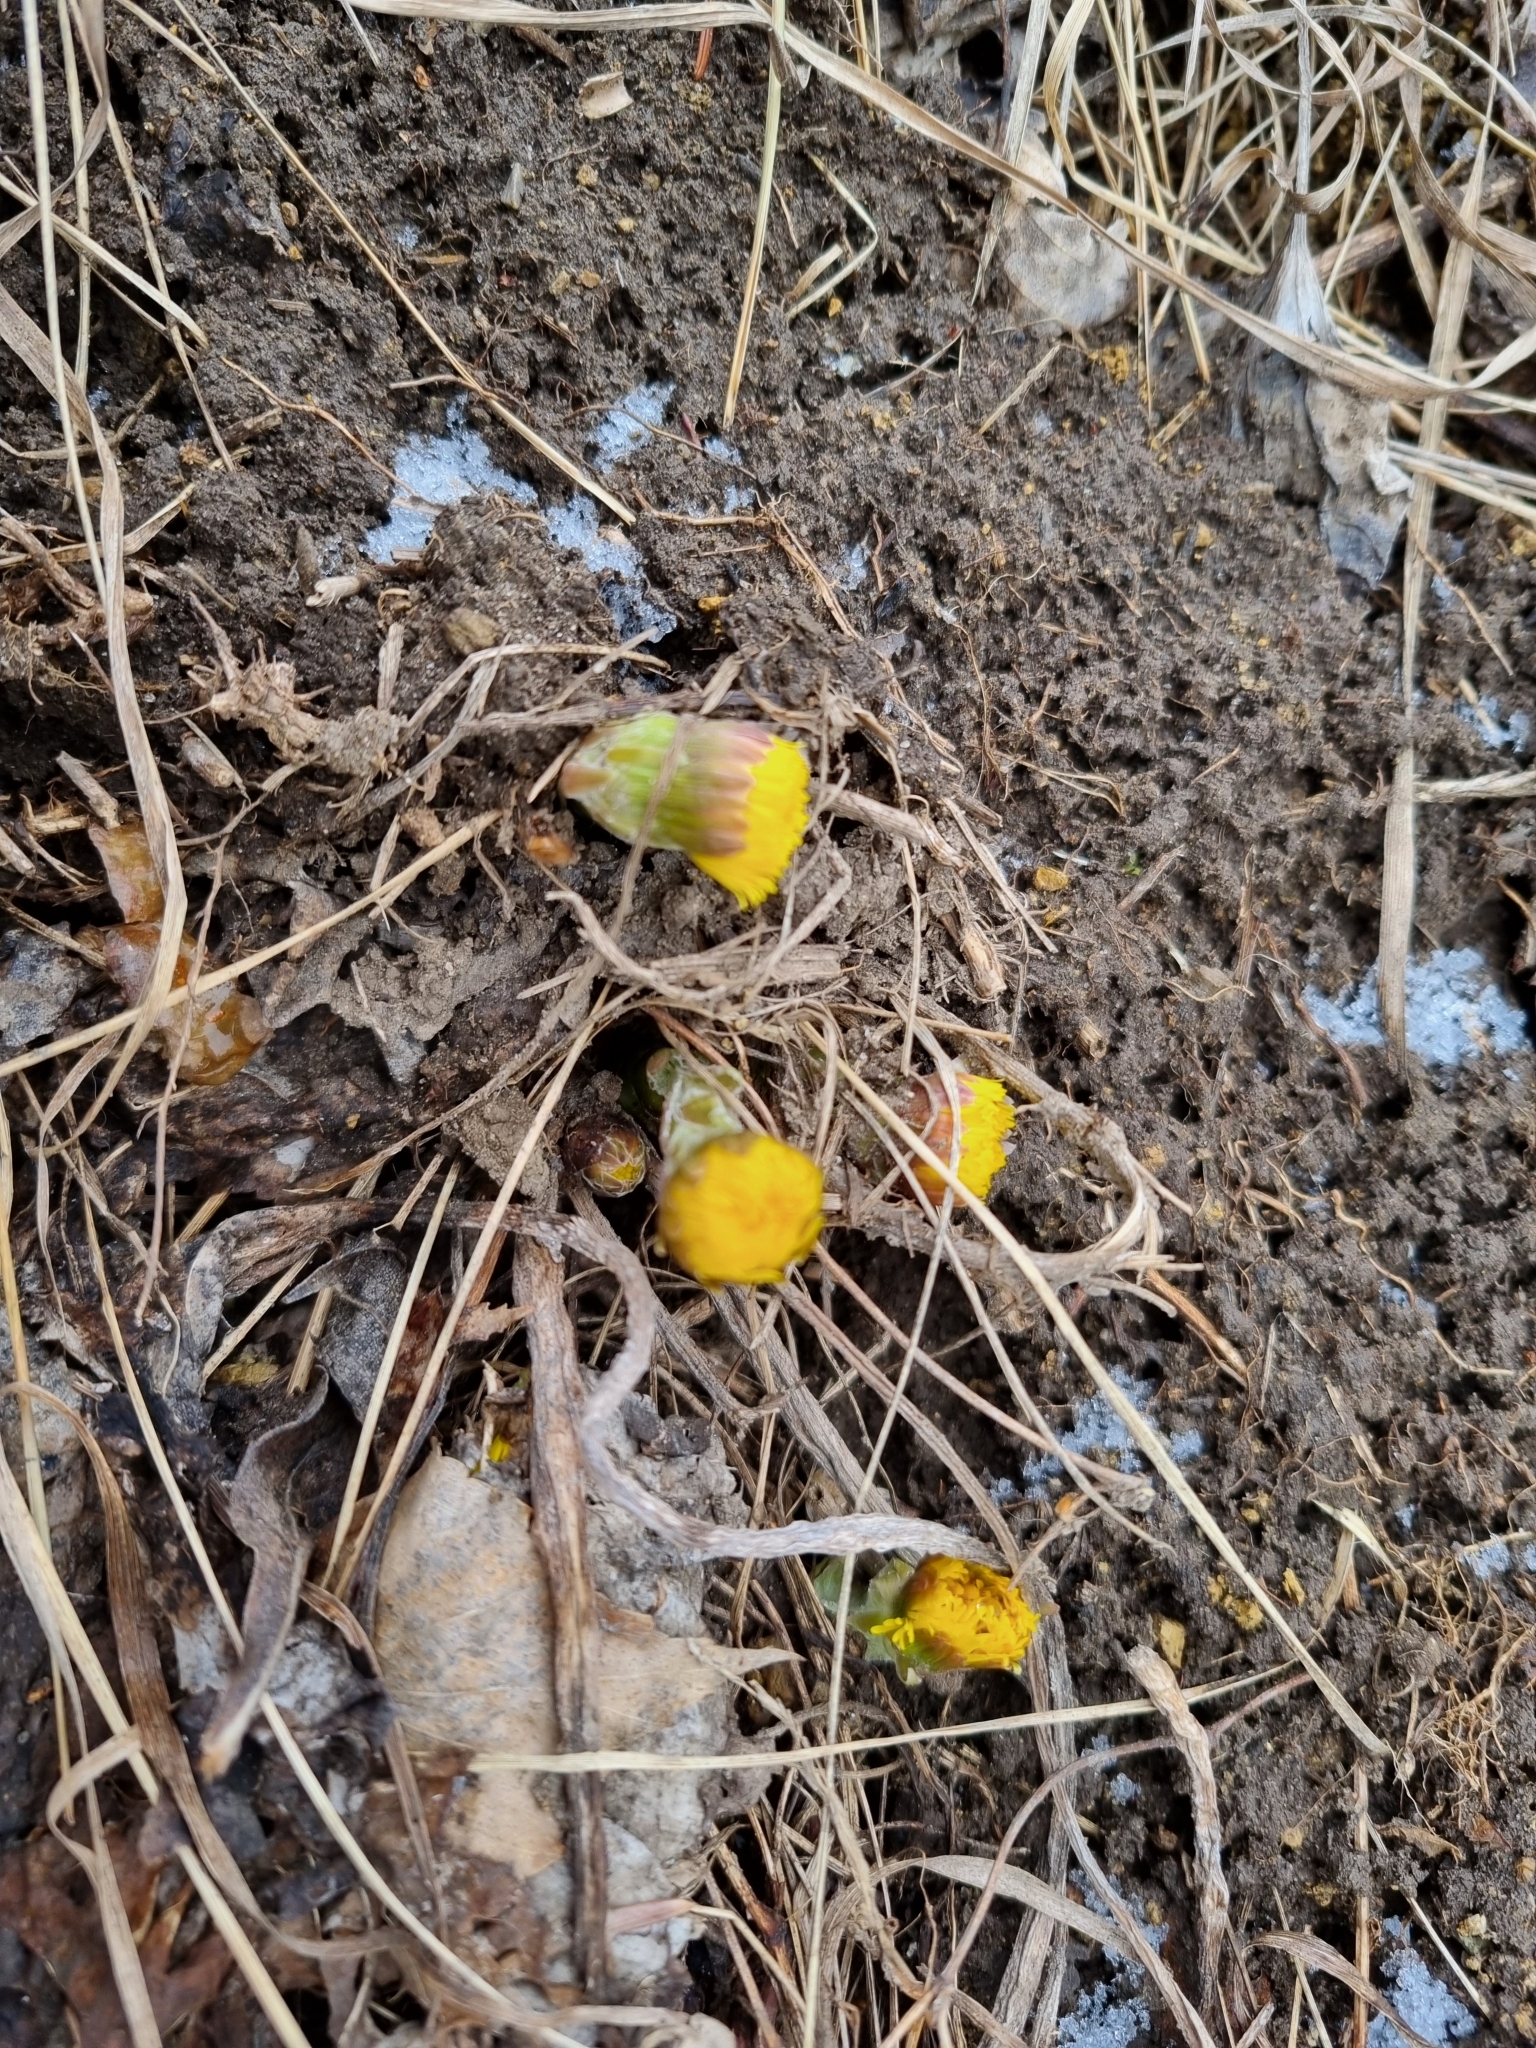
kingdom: Plantae
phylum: Tracheophyta
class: Magnoliopsida
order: Asterales
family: Asteraceae
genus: Tussilago
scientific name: Tussilago farfara
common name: Coltsfoot
